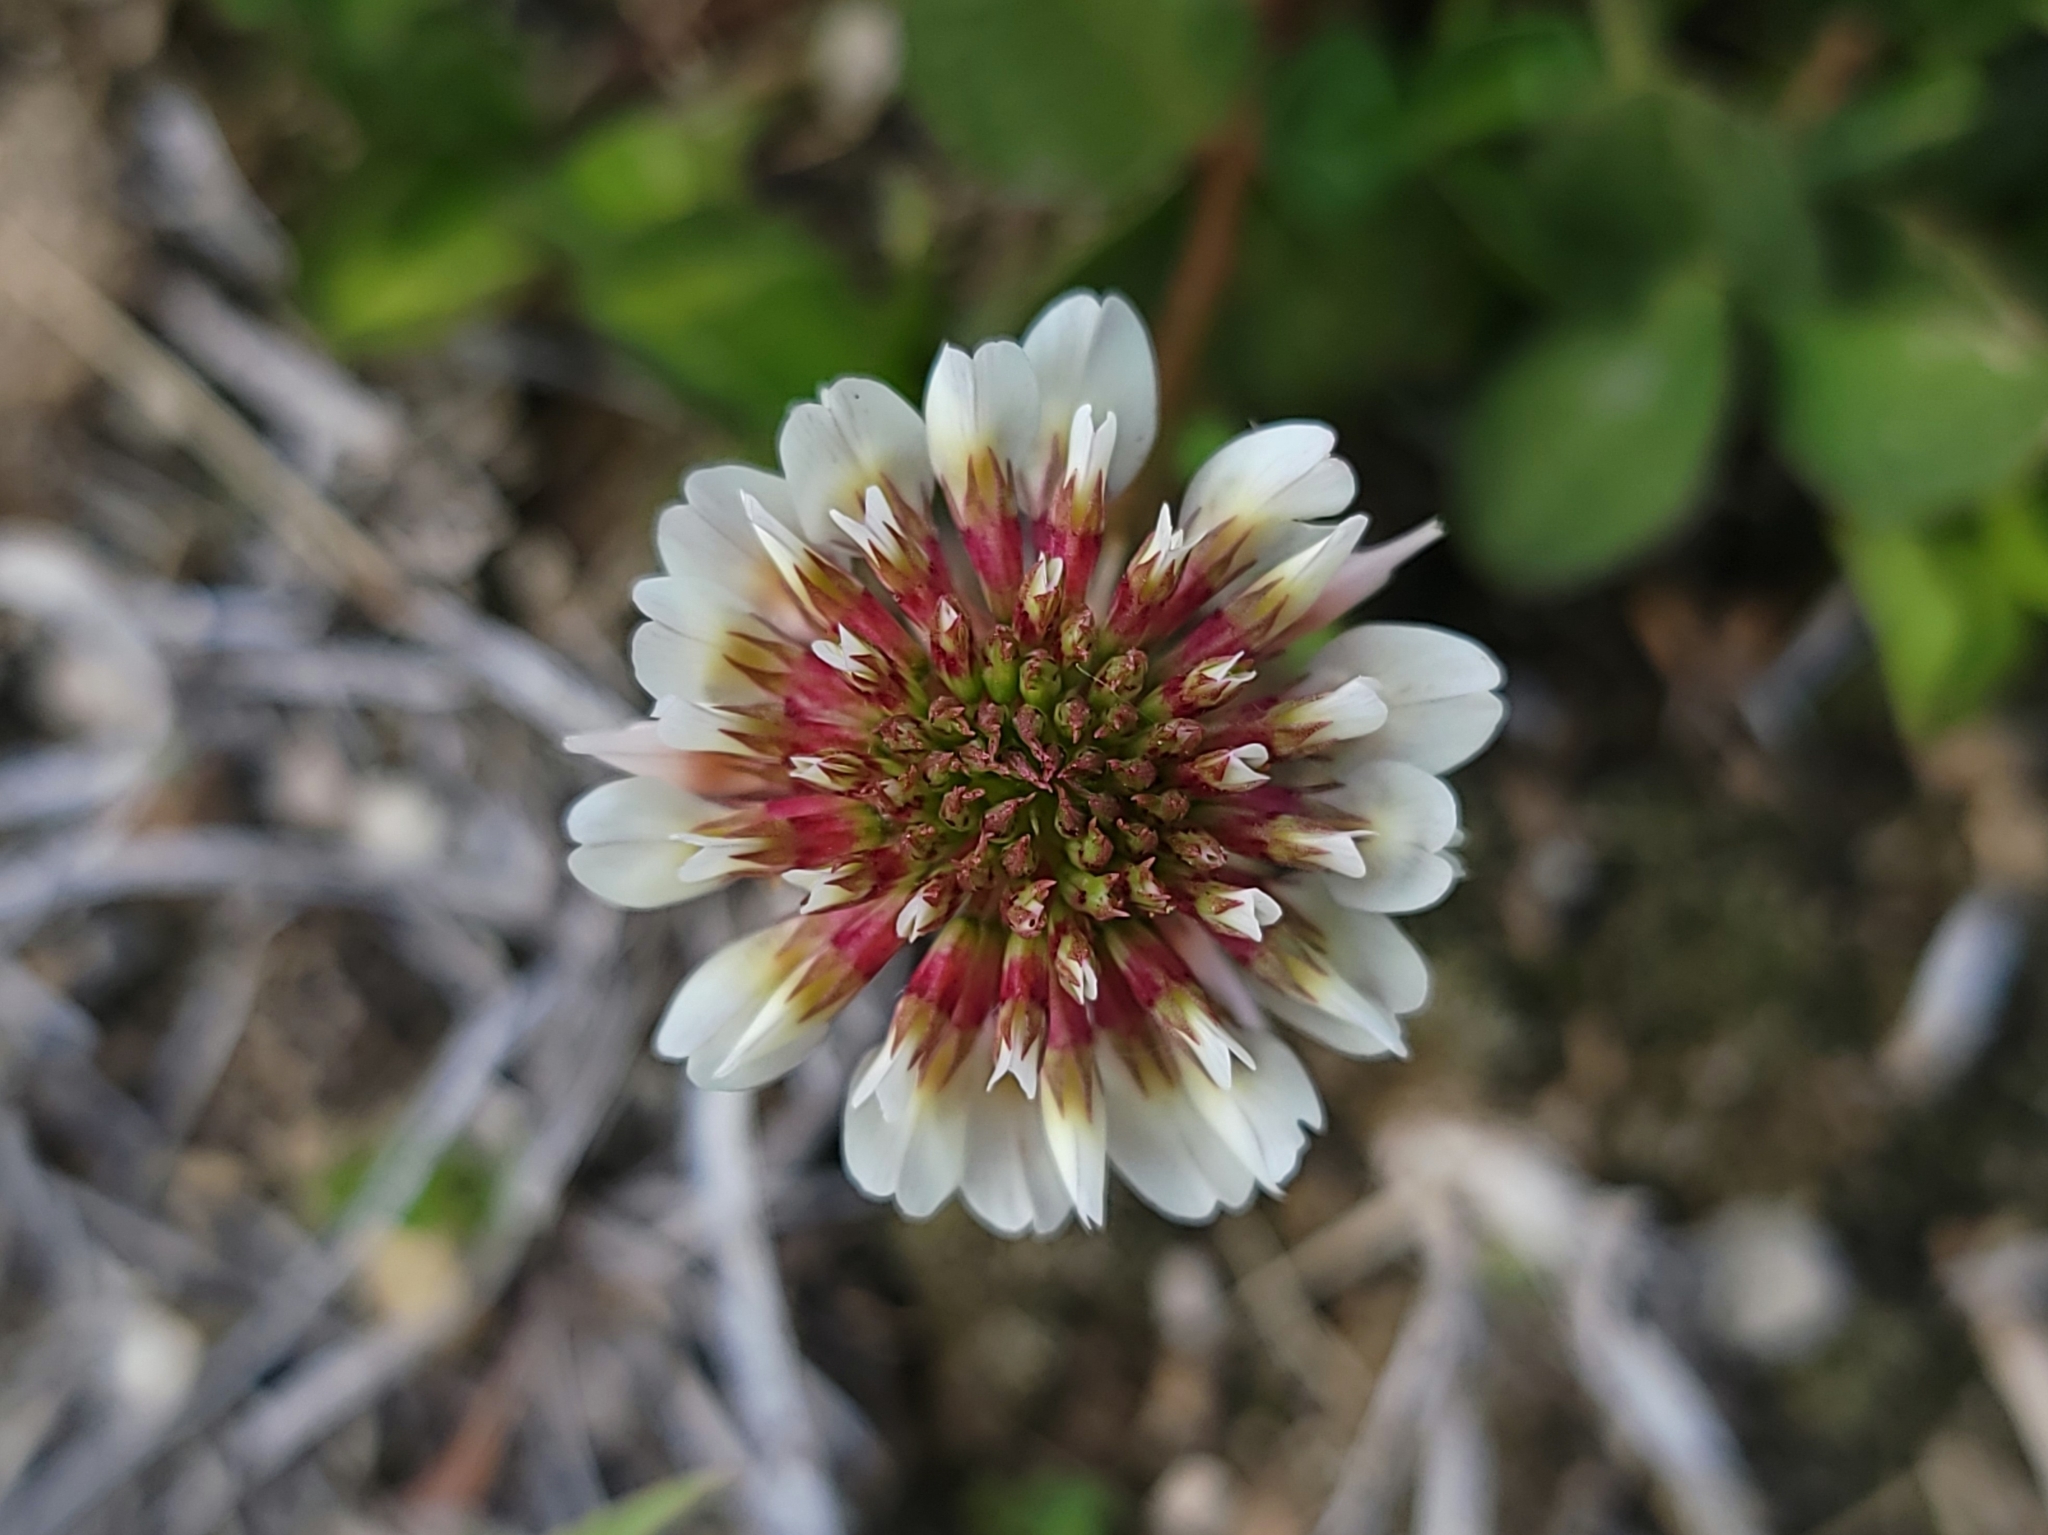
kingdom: Plantae
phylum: Tracheophyta
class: Magnoliopsida
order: Fabales
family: Fabaceae
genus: Trifolium
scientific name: Trifolium repens
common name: White clover
